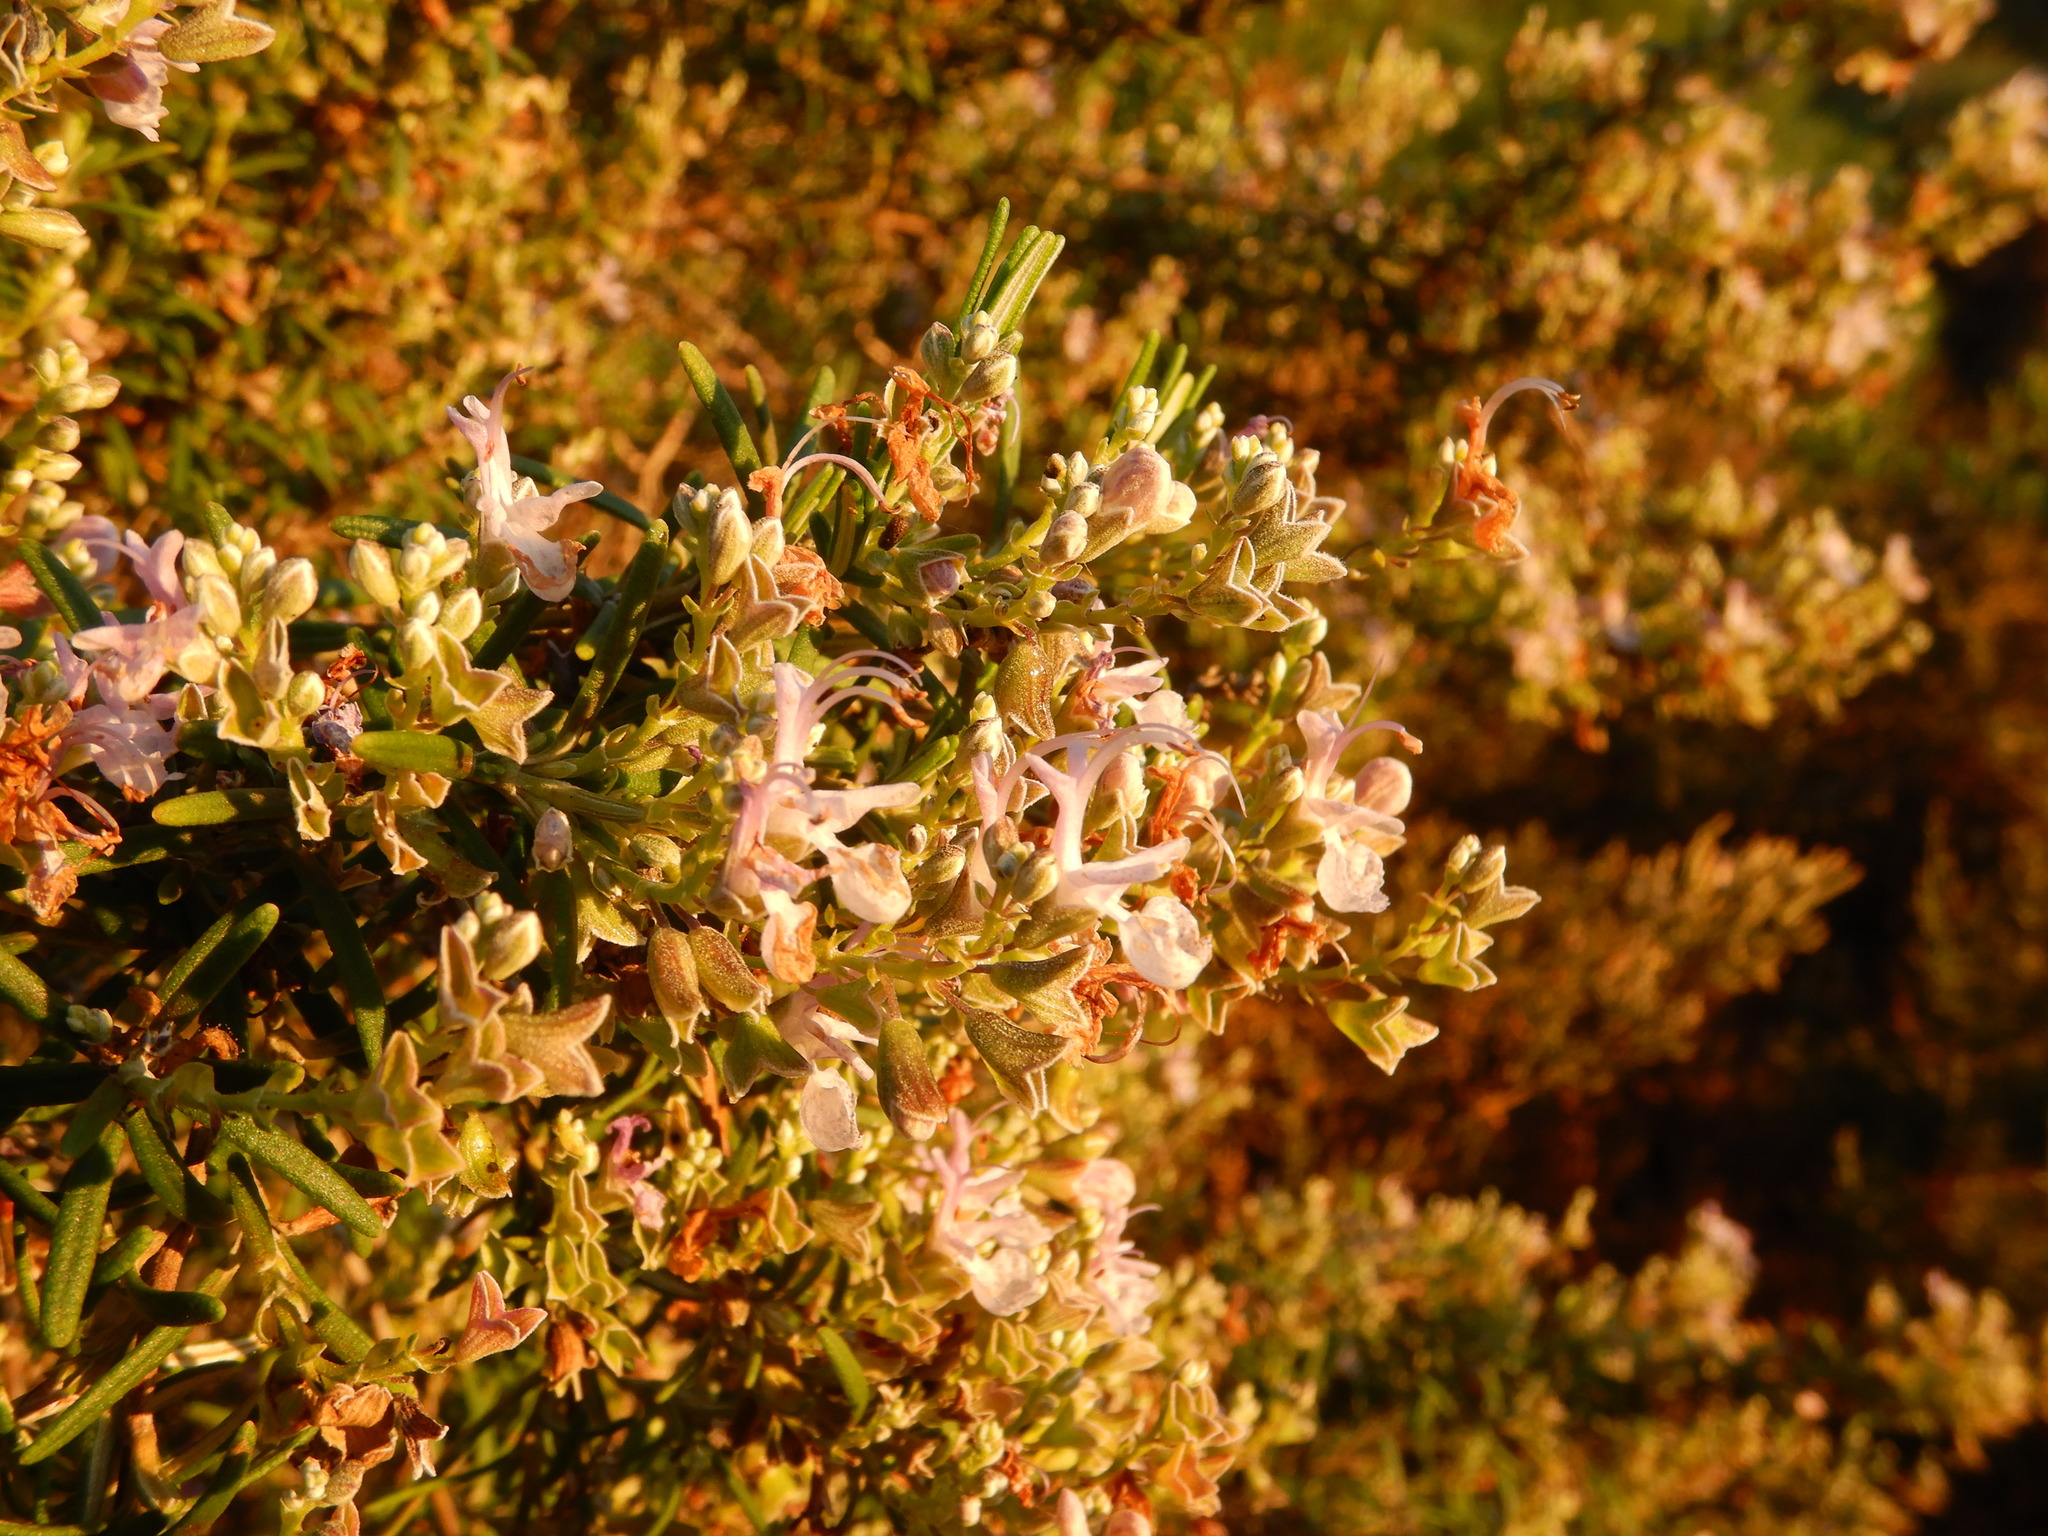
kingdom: Plantae
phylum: Tracheophyta
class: Magnoliopsida
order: Lamiales
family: Lamiaceae
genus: Salvia
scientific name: Salvia rosmarinus
